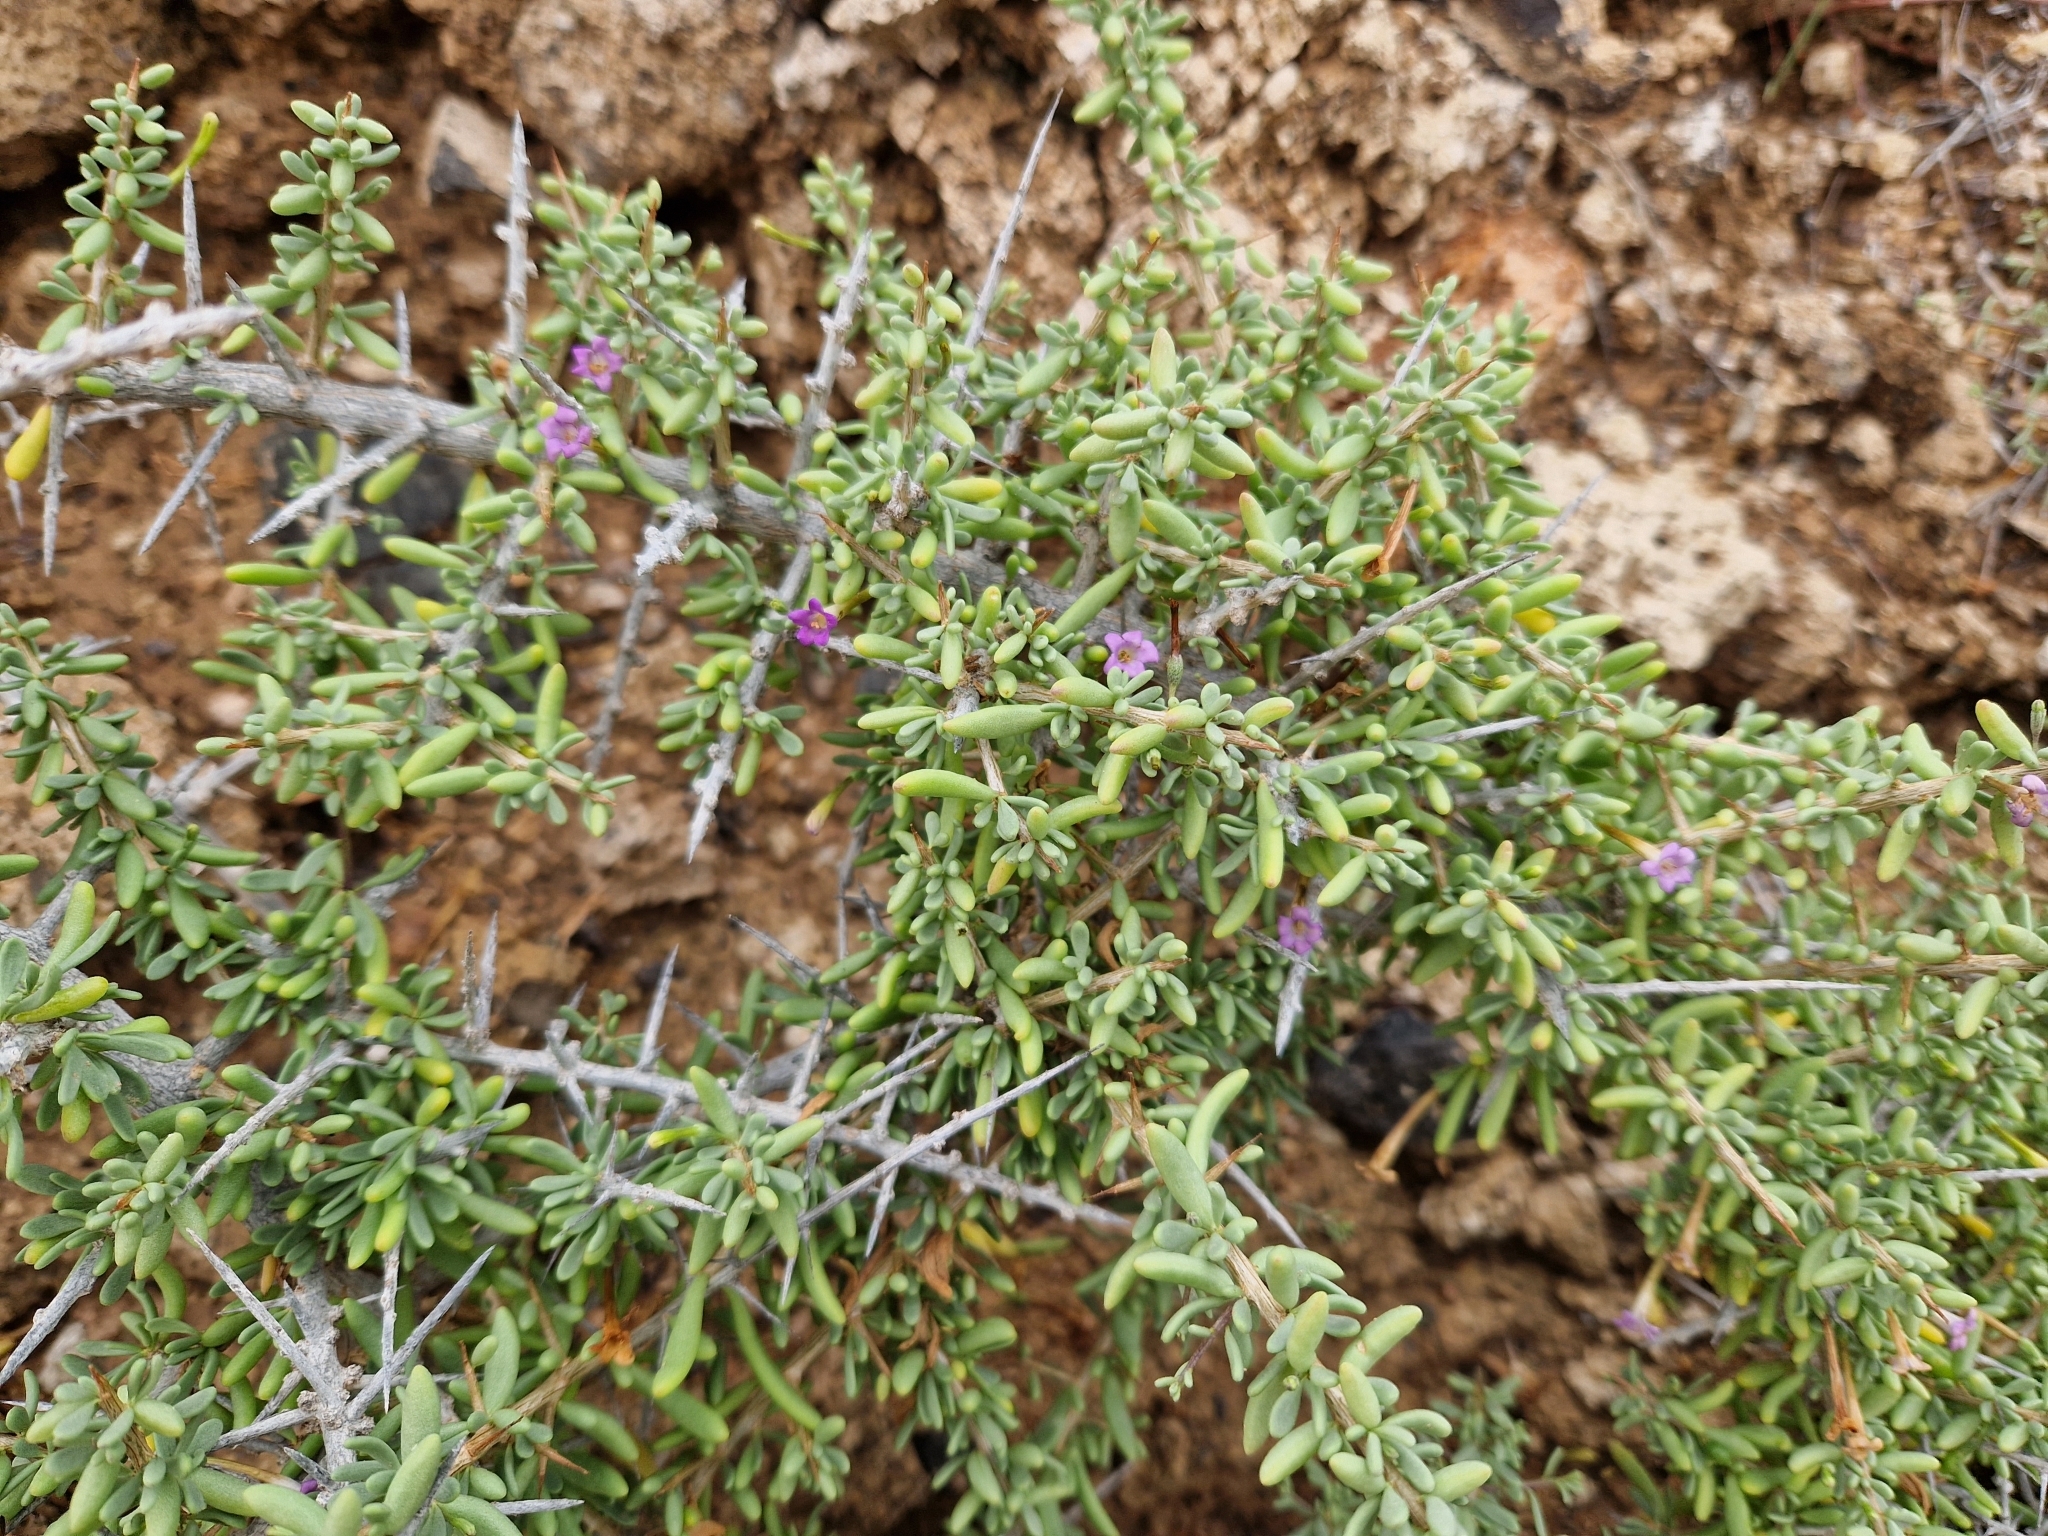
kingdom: Plantae
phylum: Tracheophyta
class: Magnoliopsida
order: Solanales
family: Solanaceae
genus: Lycium
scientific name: Lycium intricatum
